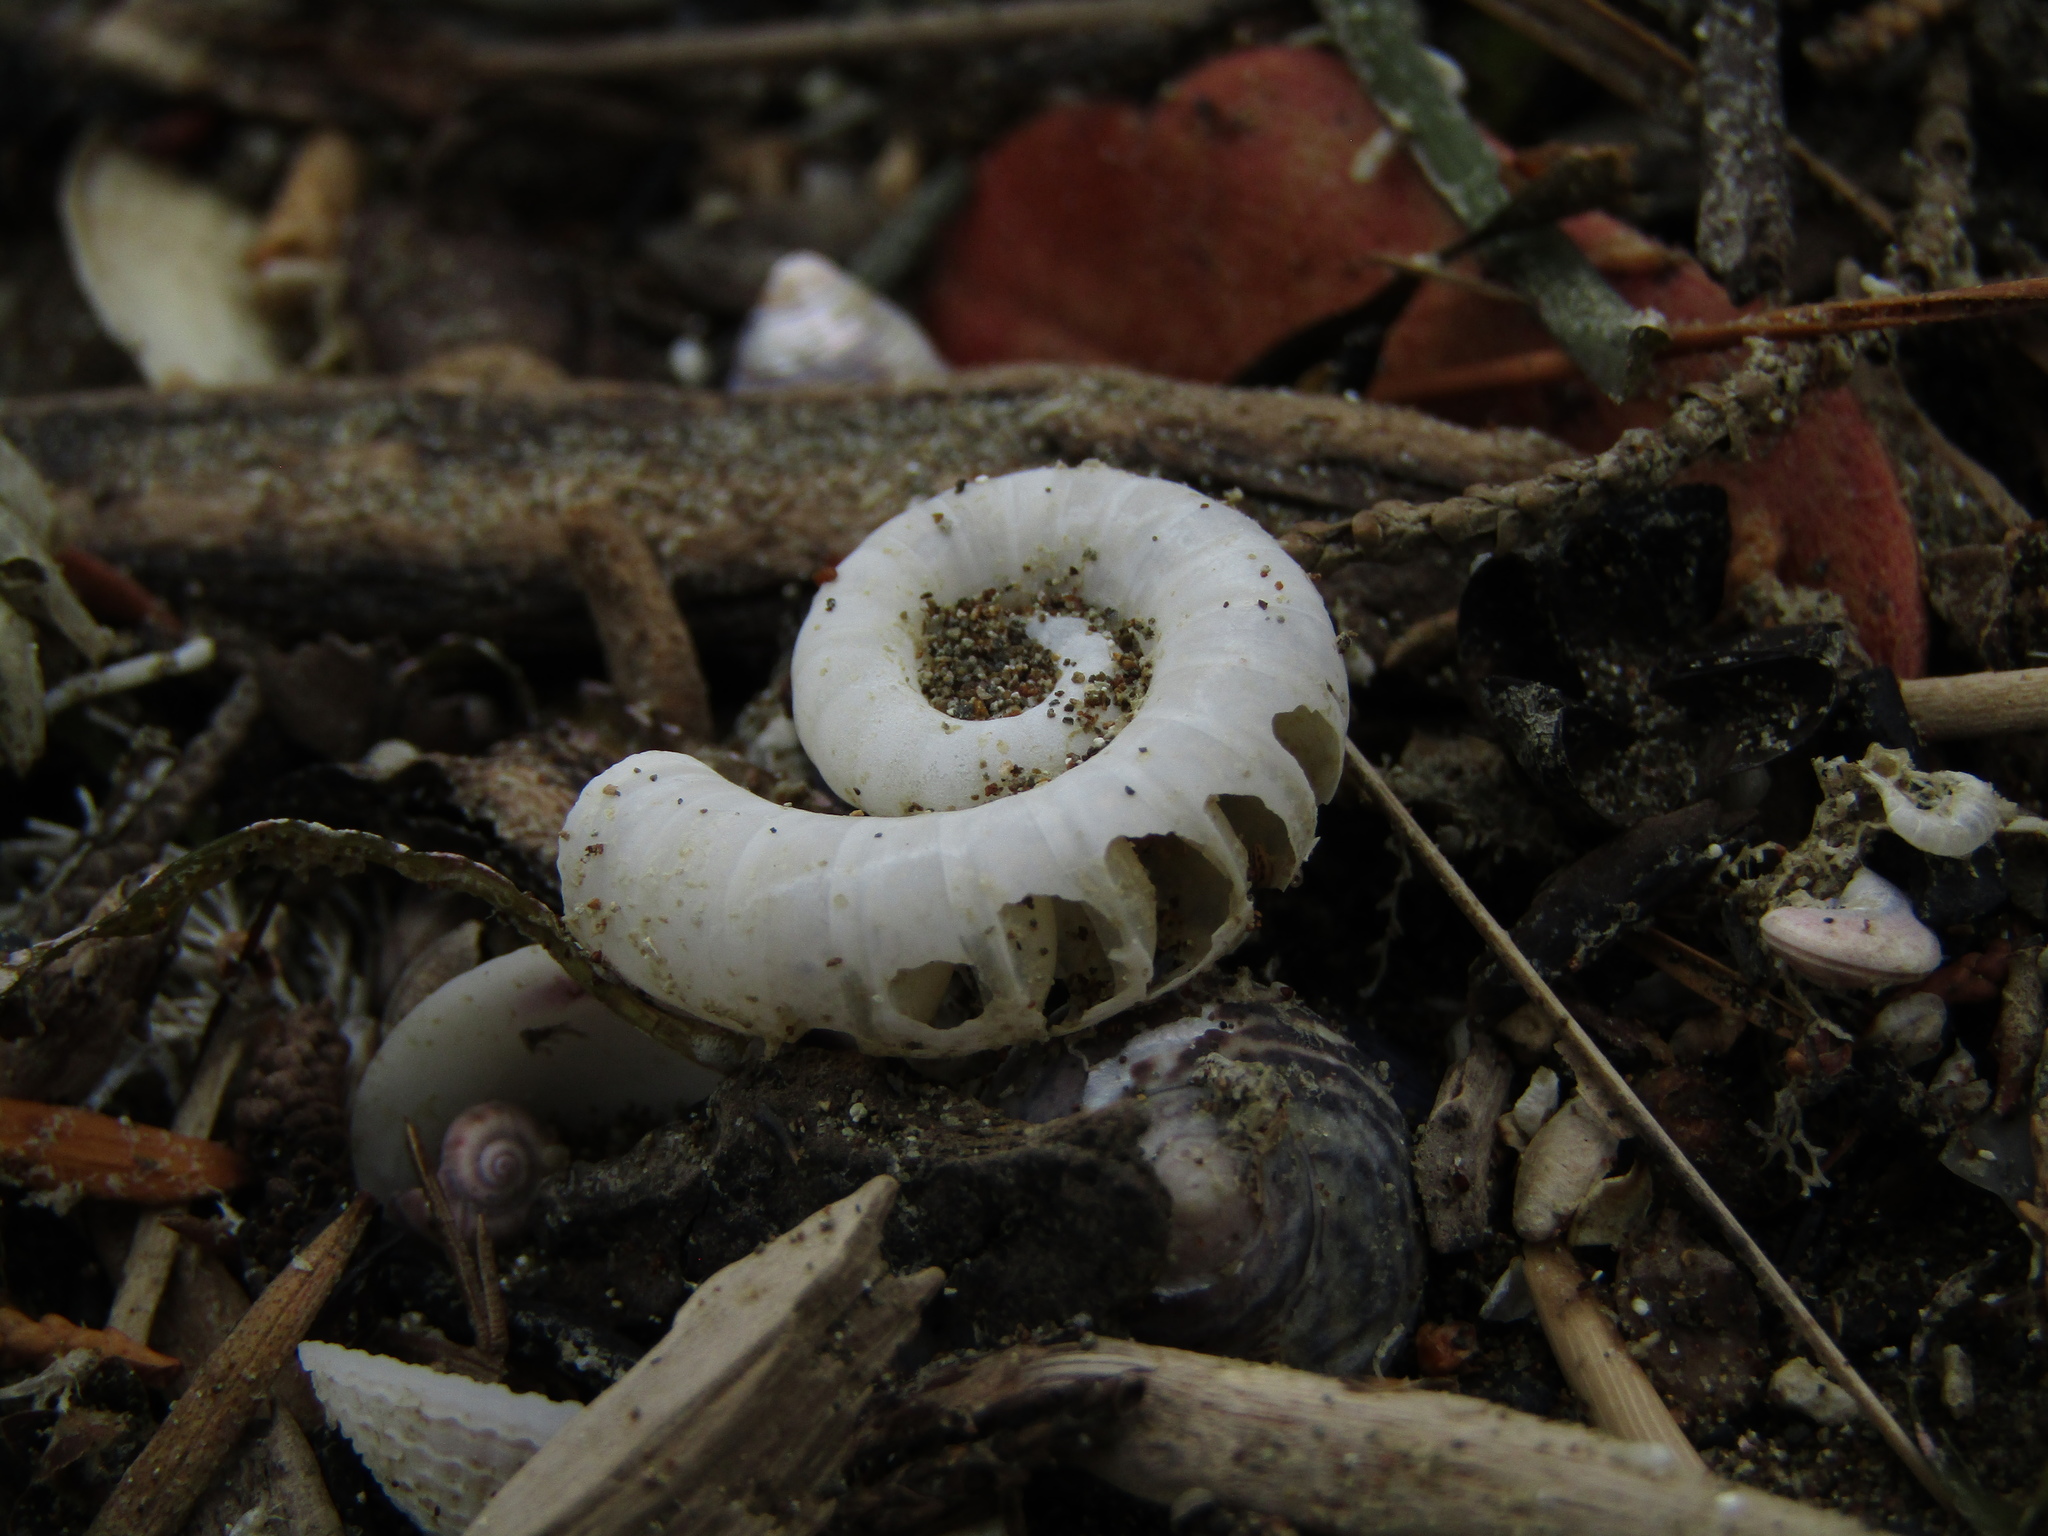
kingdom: Animalia
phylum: Mollusca
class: Cephalopoda
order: Spirulida
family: Spirulidae
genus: Spirula
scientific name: Spirula spirula
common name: Ram's horn squid
